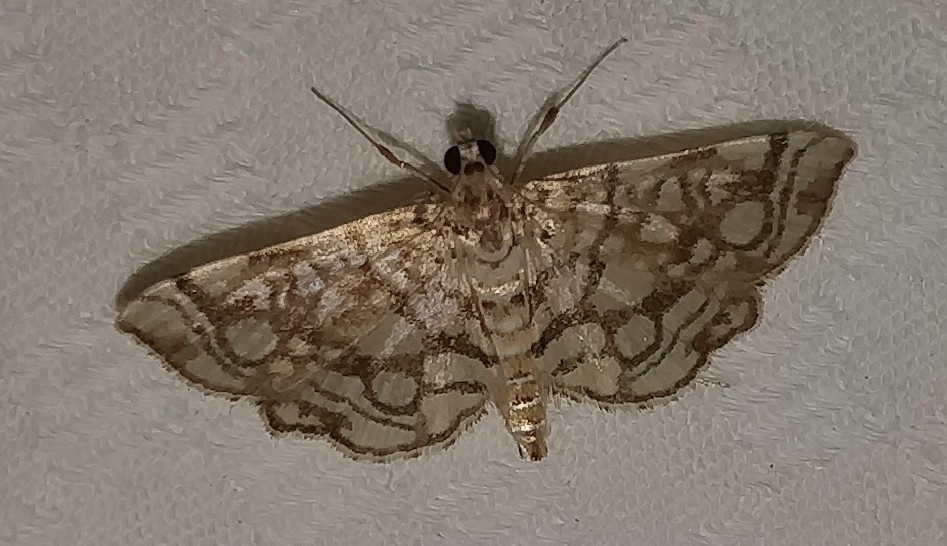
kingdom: Animalia
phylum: Arthropoda
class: Insecta
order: Lepidoptera
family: Crambidae
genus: Lygropia
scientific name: Lygropia rivulalis
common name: Bog lygropia moth
